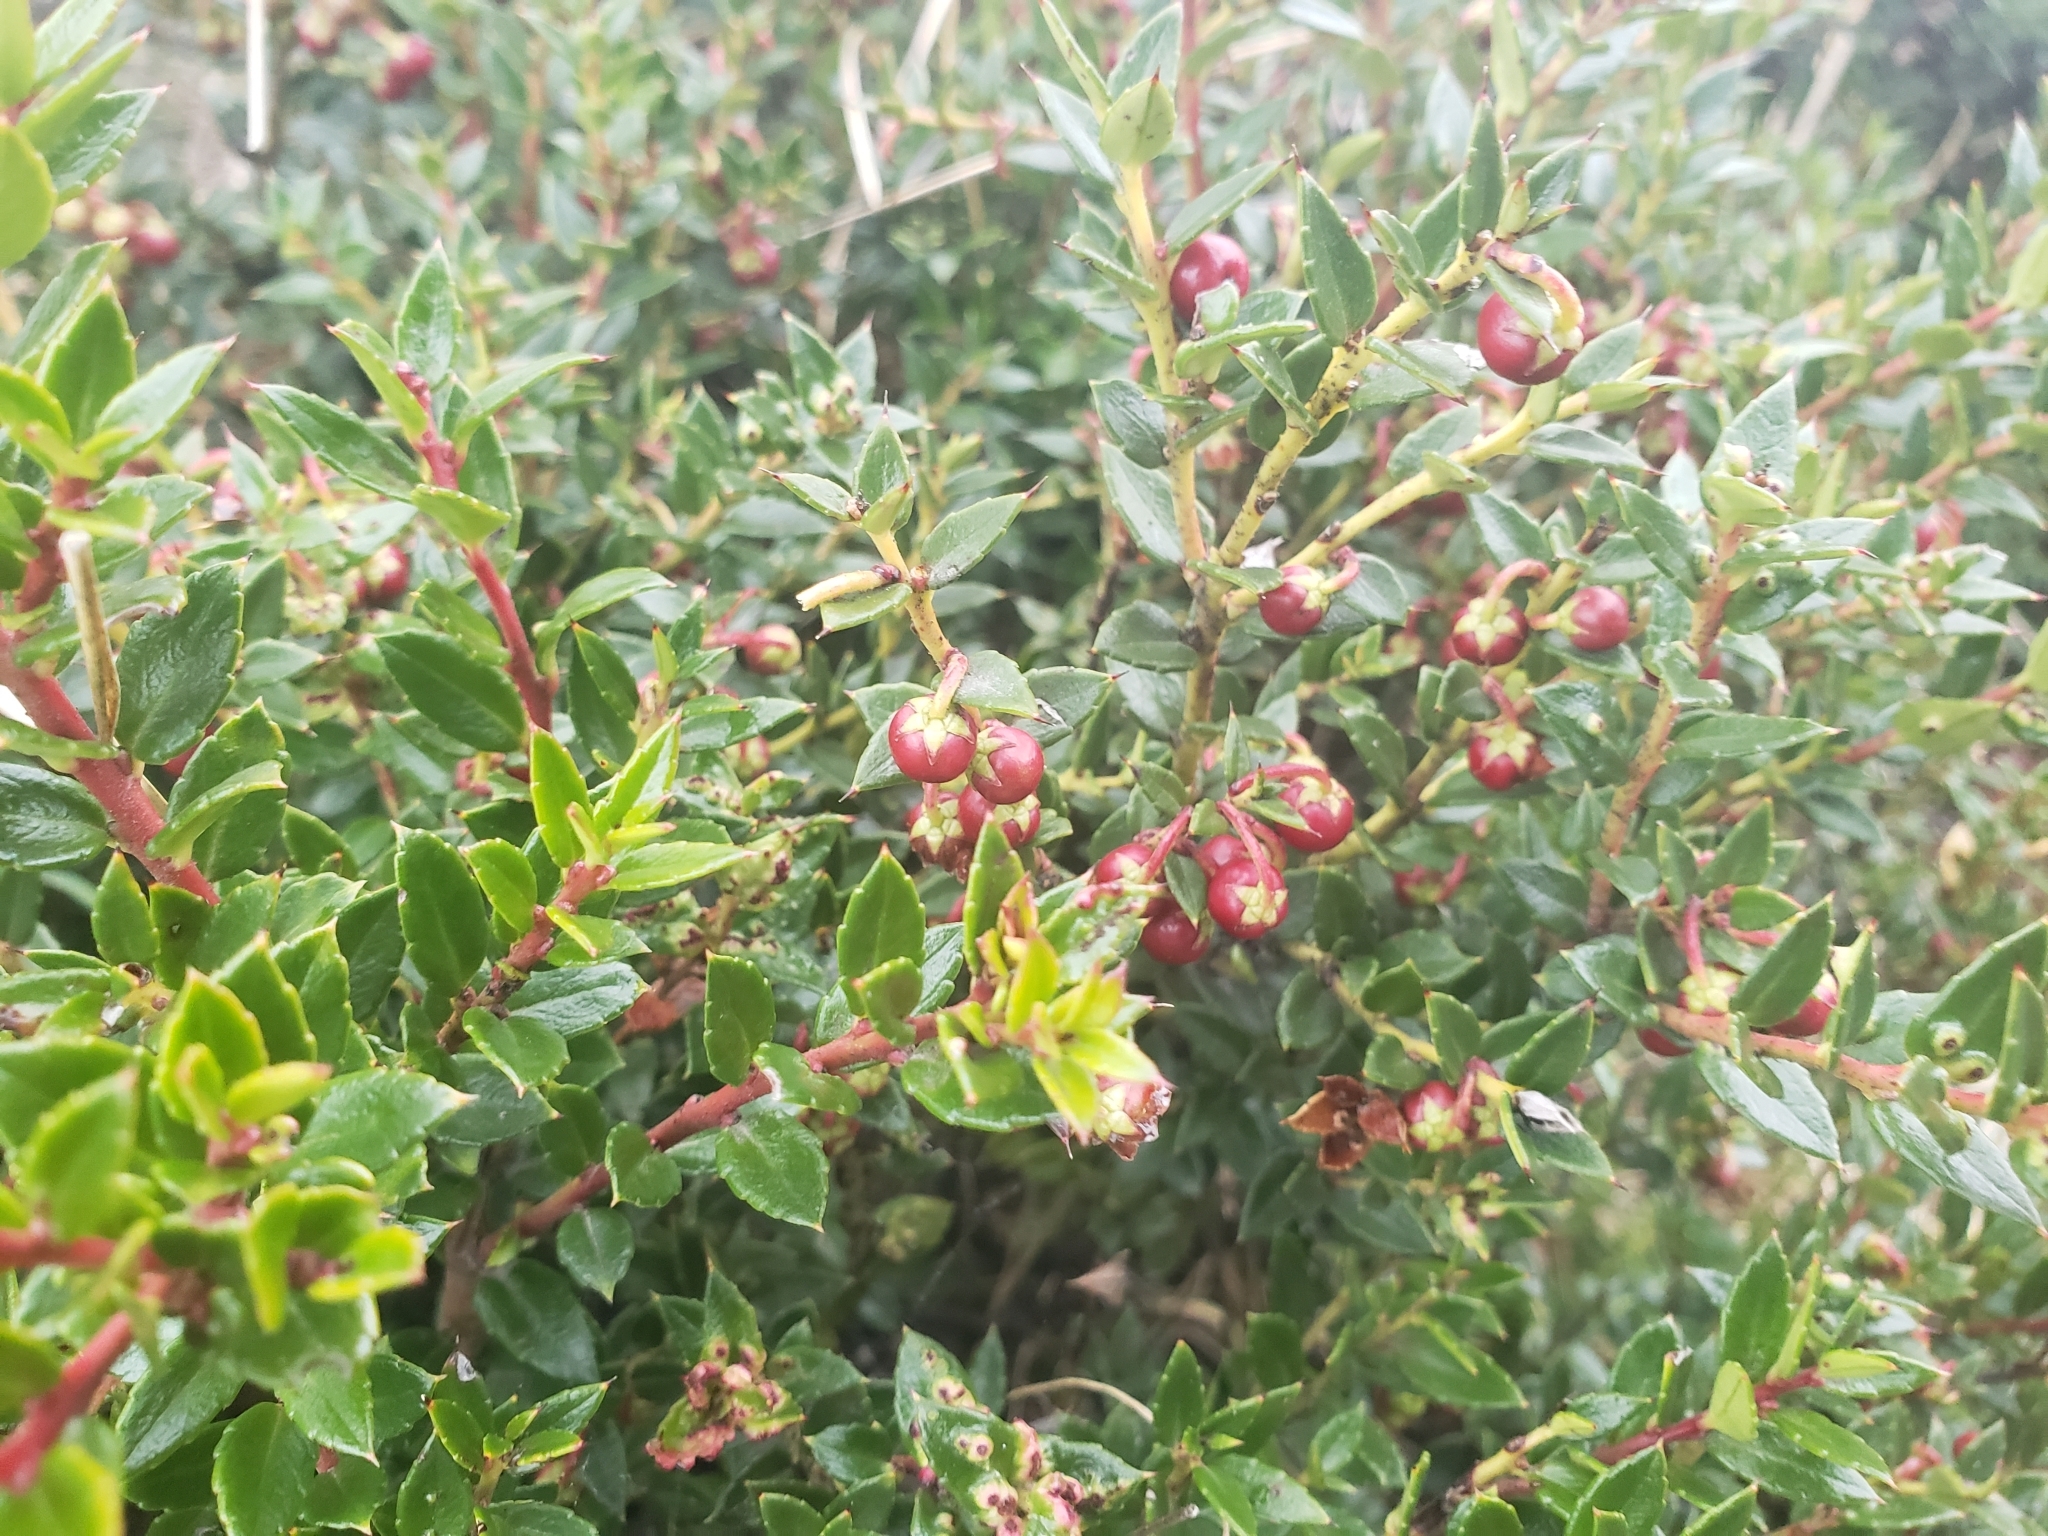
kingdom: Plantae
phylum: Tracheophyta
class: Magnoliopsida
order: Ericales
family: Ericaceae
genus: Gaultheria
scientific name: Gaultheria mucronata
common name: Prickly heath
